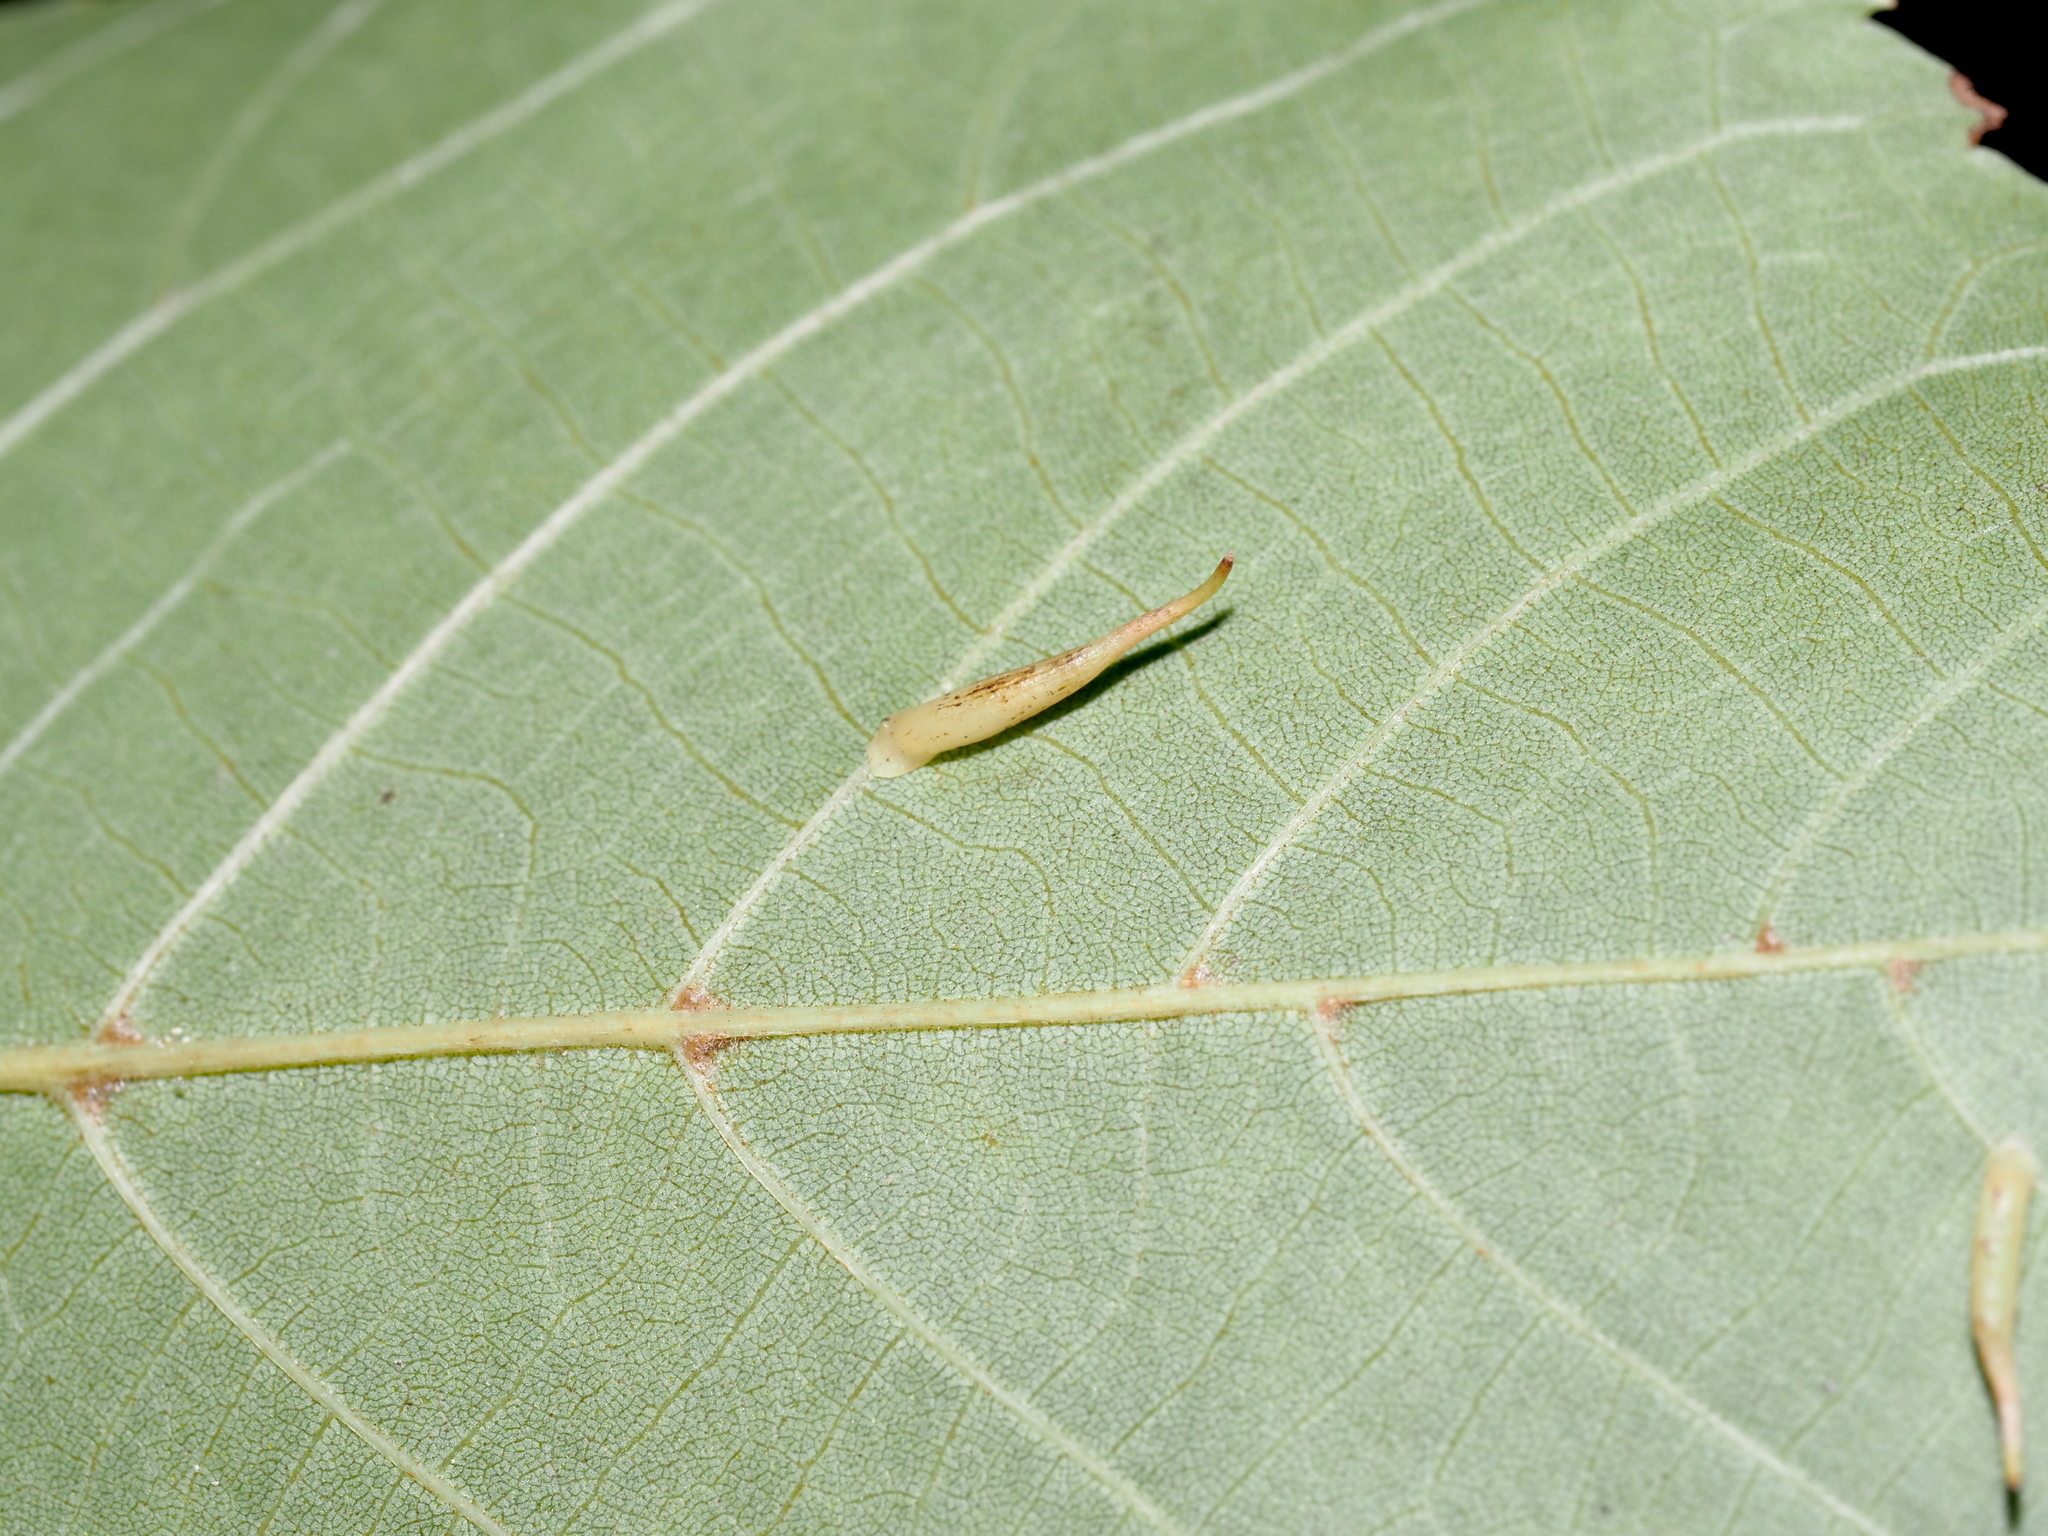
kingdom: Animalia
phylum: Arthropoda
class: Insecta
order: Diptera
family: Cecidomyiidae
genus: Caryomyia
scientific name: Caryomyia
